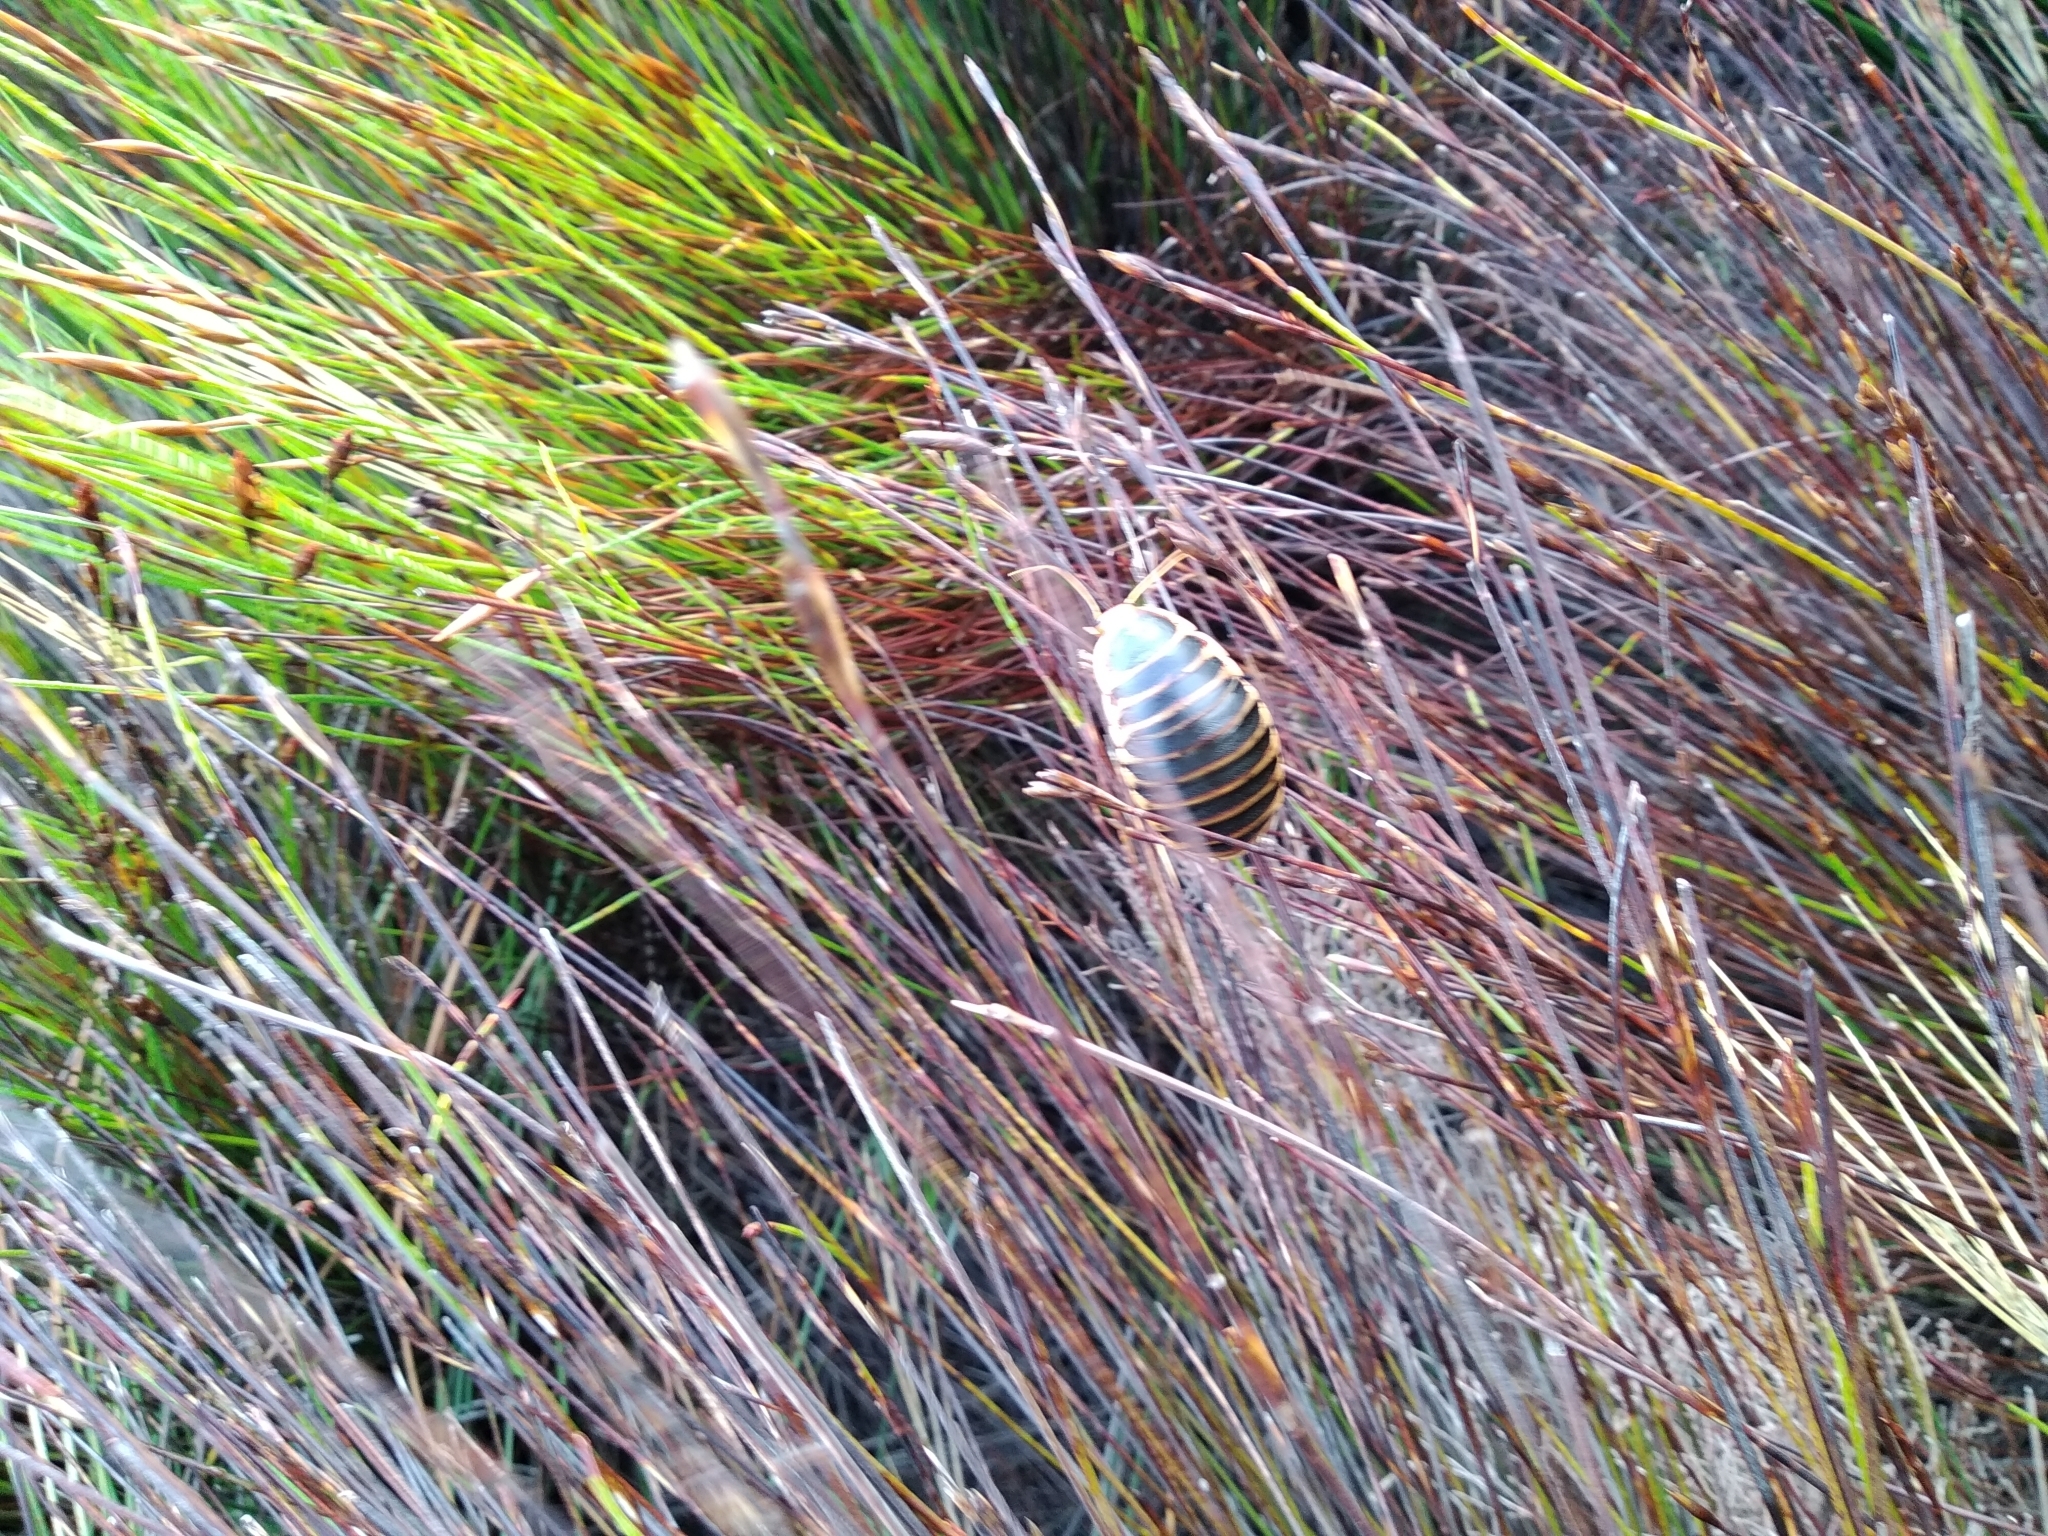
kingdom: Animalia
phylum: Arthropoda
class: Insecta
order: Blattodea
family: Blaberidae
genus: Aptera
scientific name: Aptera fusca
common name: Cape mountain cockroach
